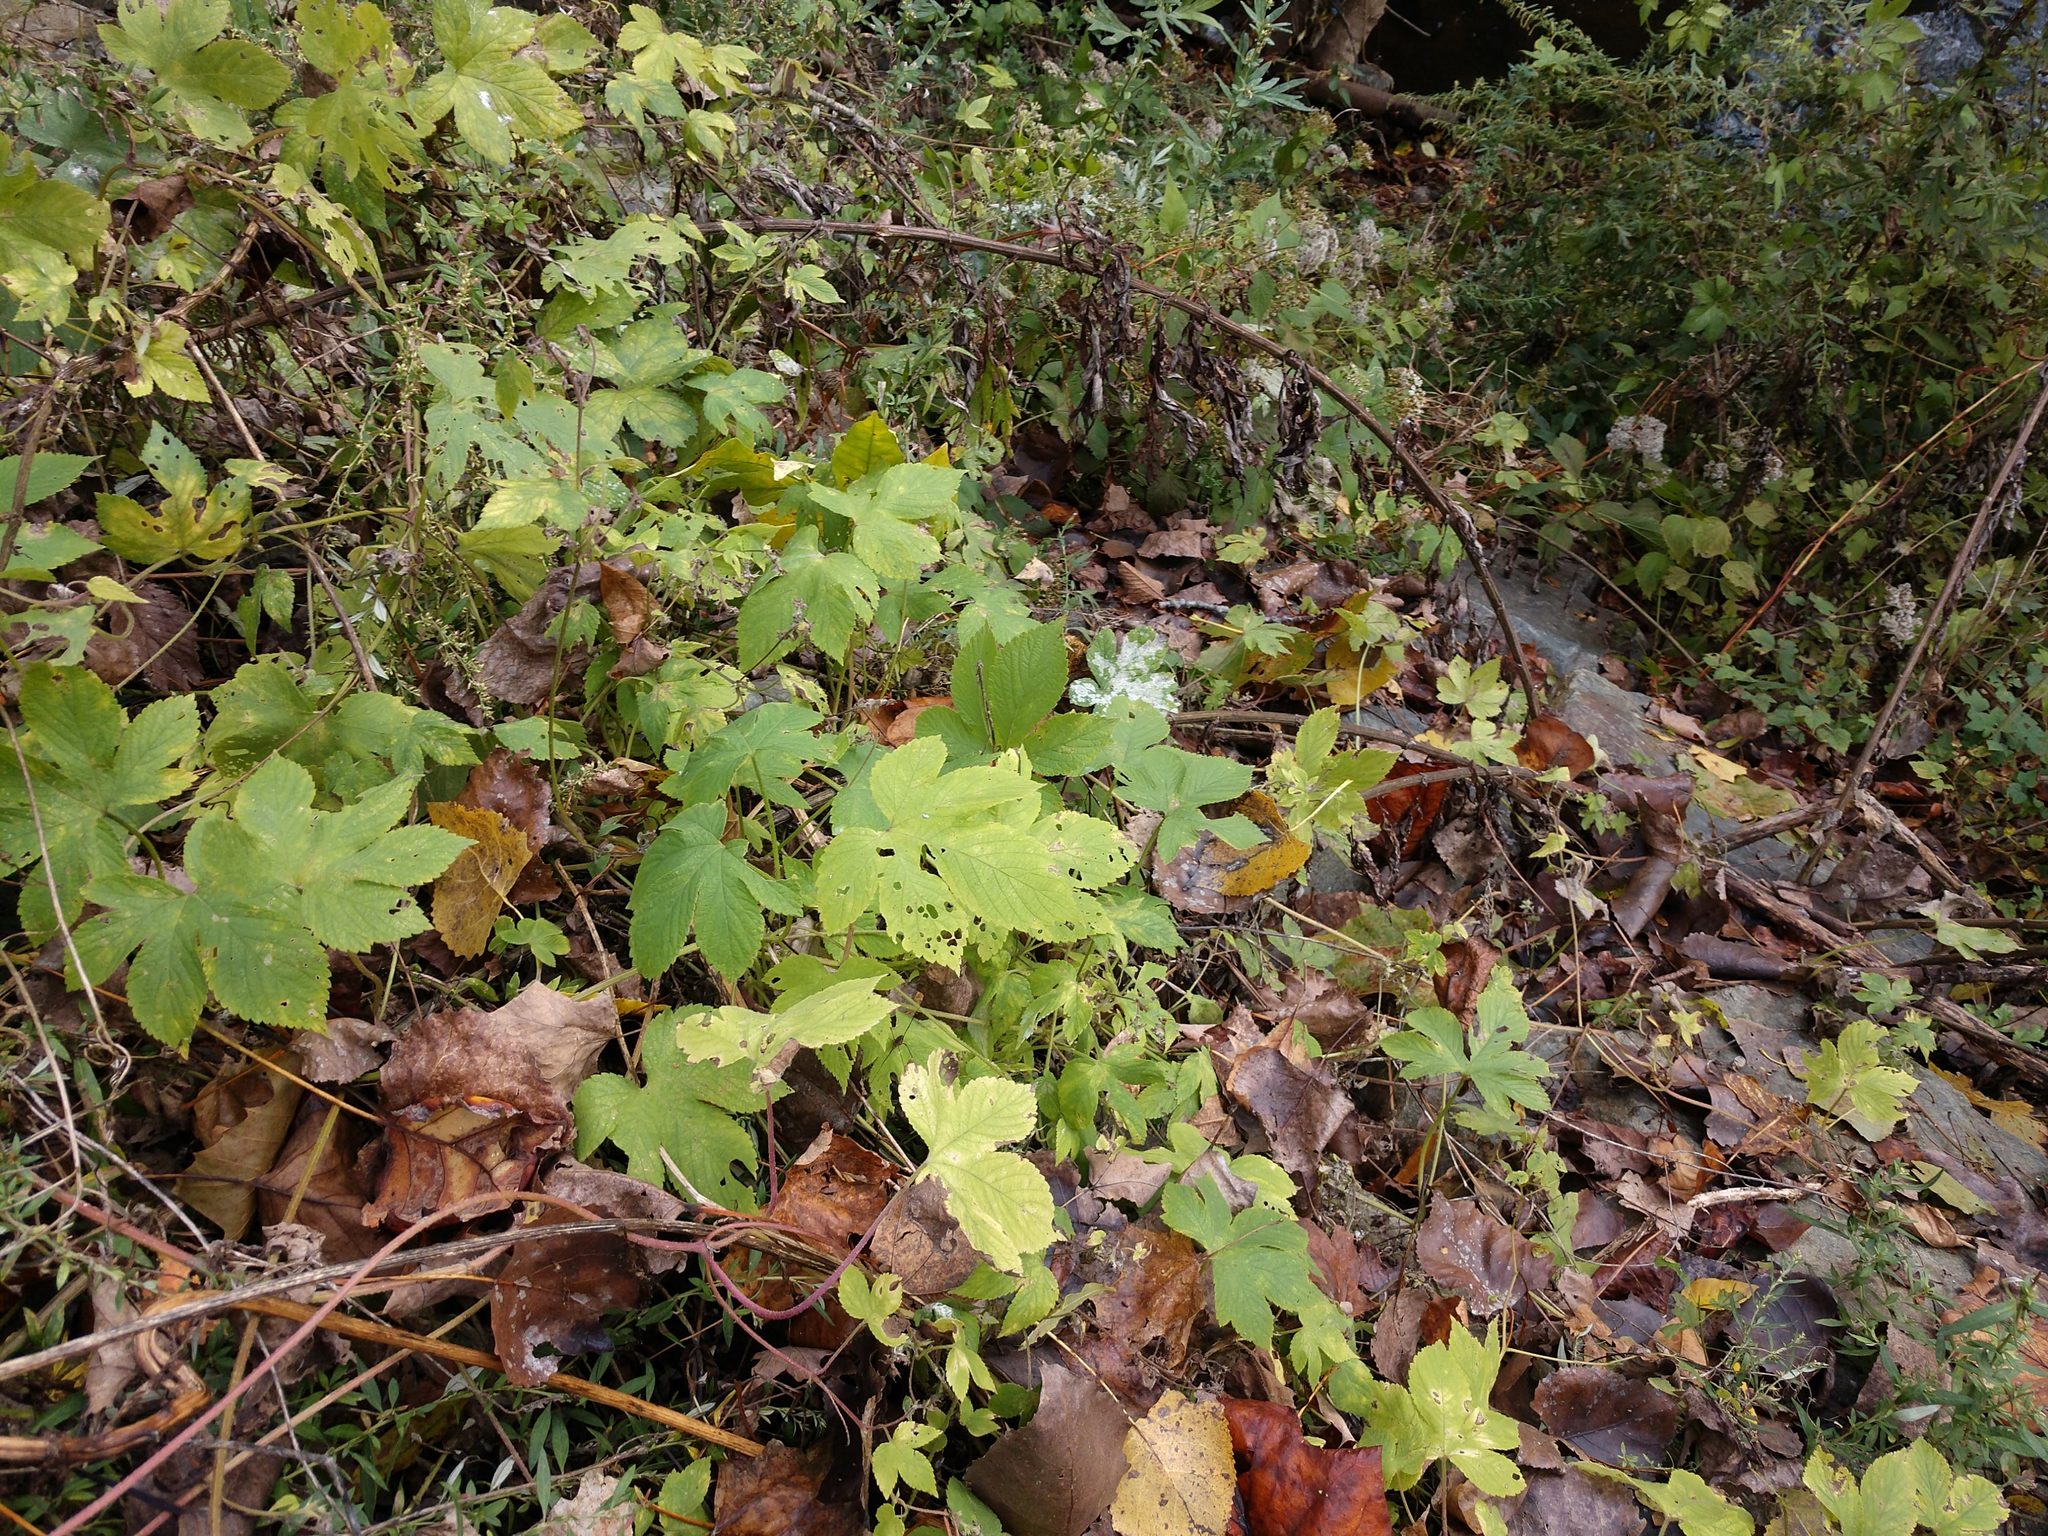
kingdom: Plantae
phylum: Tracheophyta
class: Magnoliopsida
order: Rosales
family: Cannabaceae
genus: Humulus
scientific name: Humulus scandens
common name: Japanese hop
